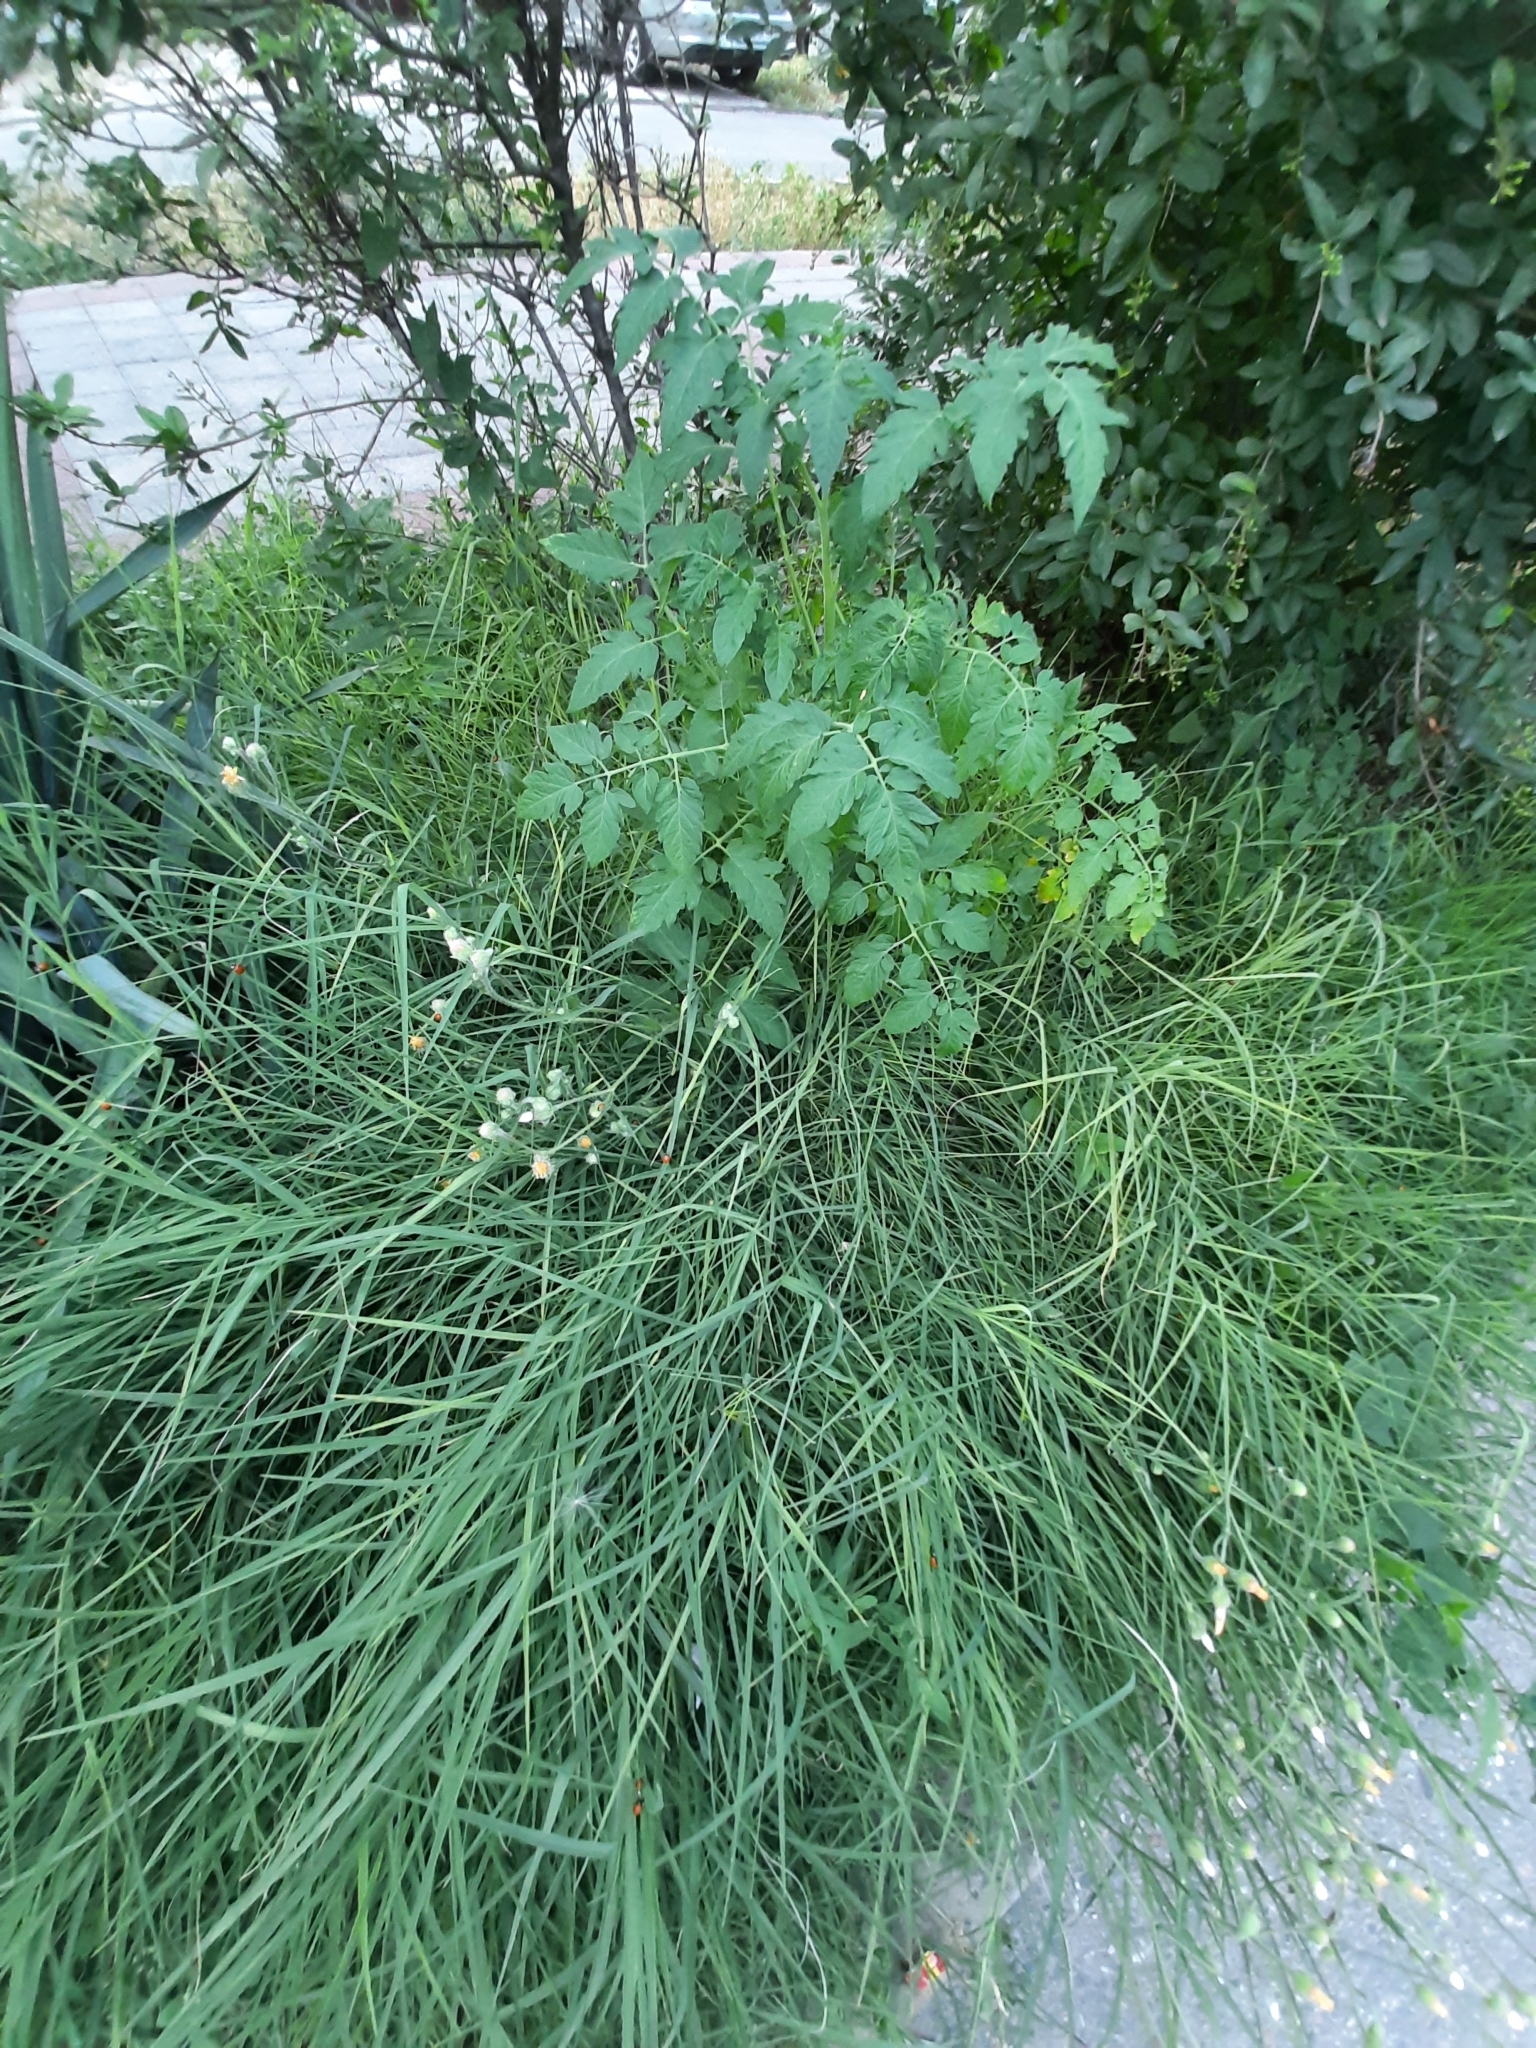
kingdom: Plantae
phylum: Tracheophyta
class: Magnoliopsida
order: Solanales
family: Solanaceae
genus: Solanum
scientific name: Solanum lycopersicum
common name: Garden tomato
